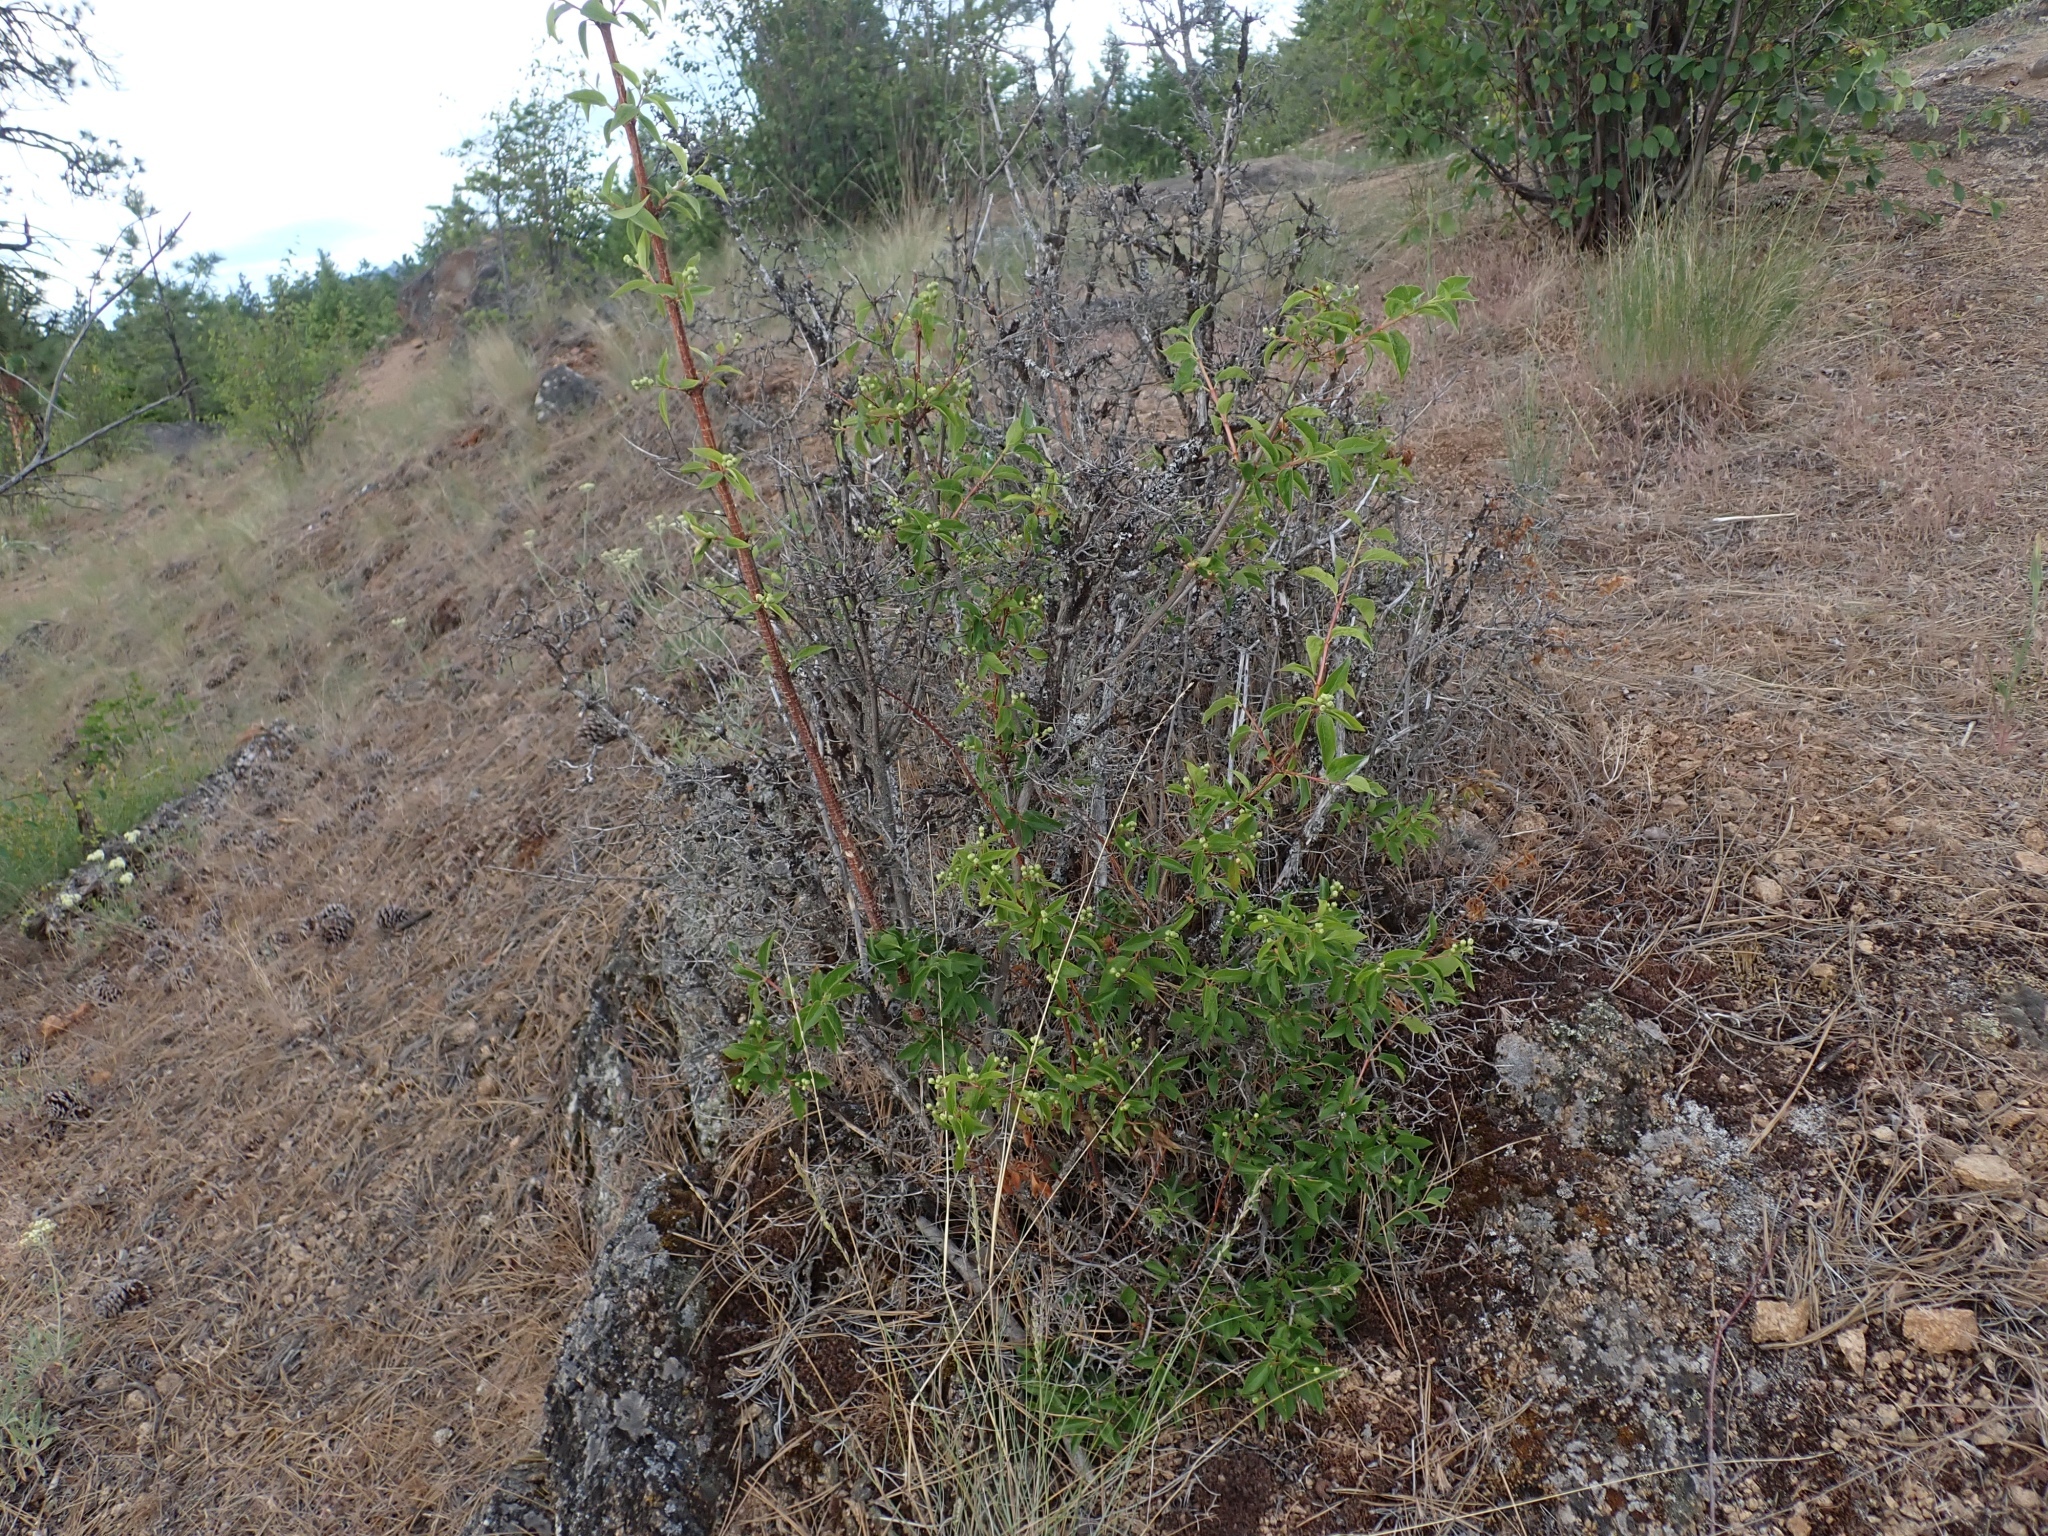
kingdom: Plantae
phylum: Tracheophyta
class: Magnoliopsida
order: Cornales
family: Hydrangeaceae
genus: Philadelphus
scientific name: Philadelphus lewisii
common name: Lewis's mock orange
